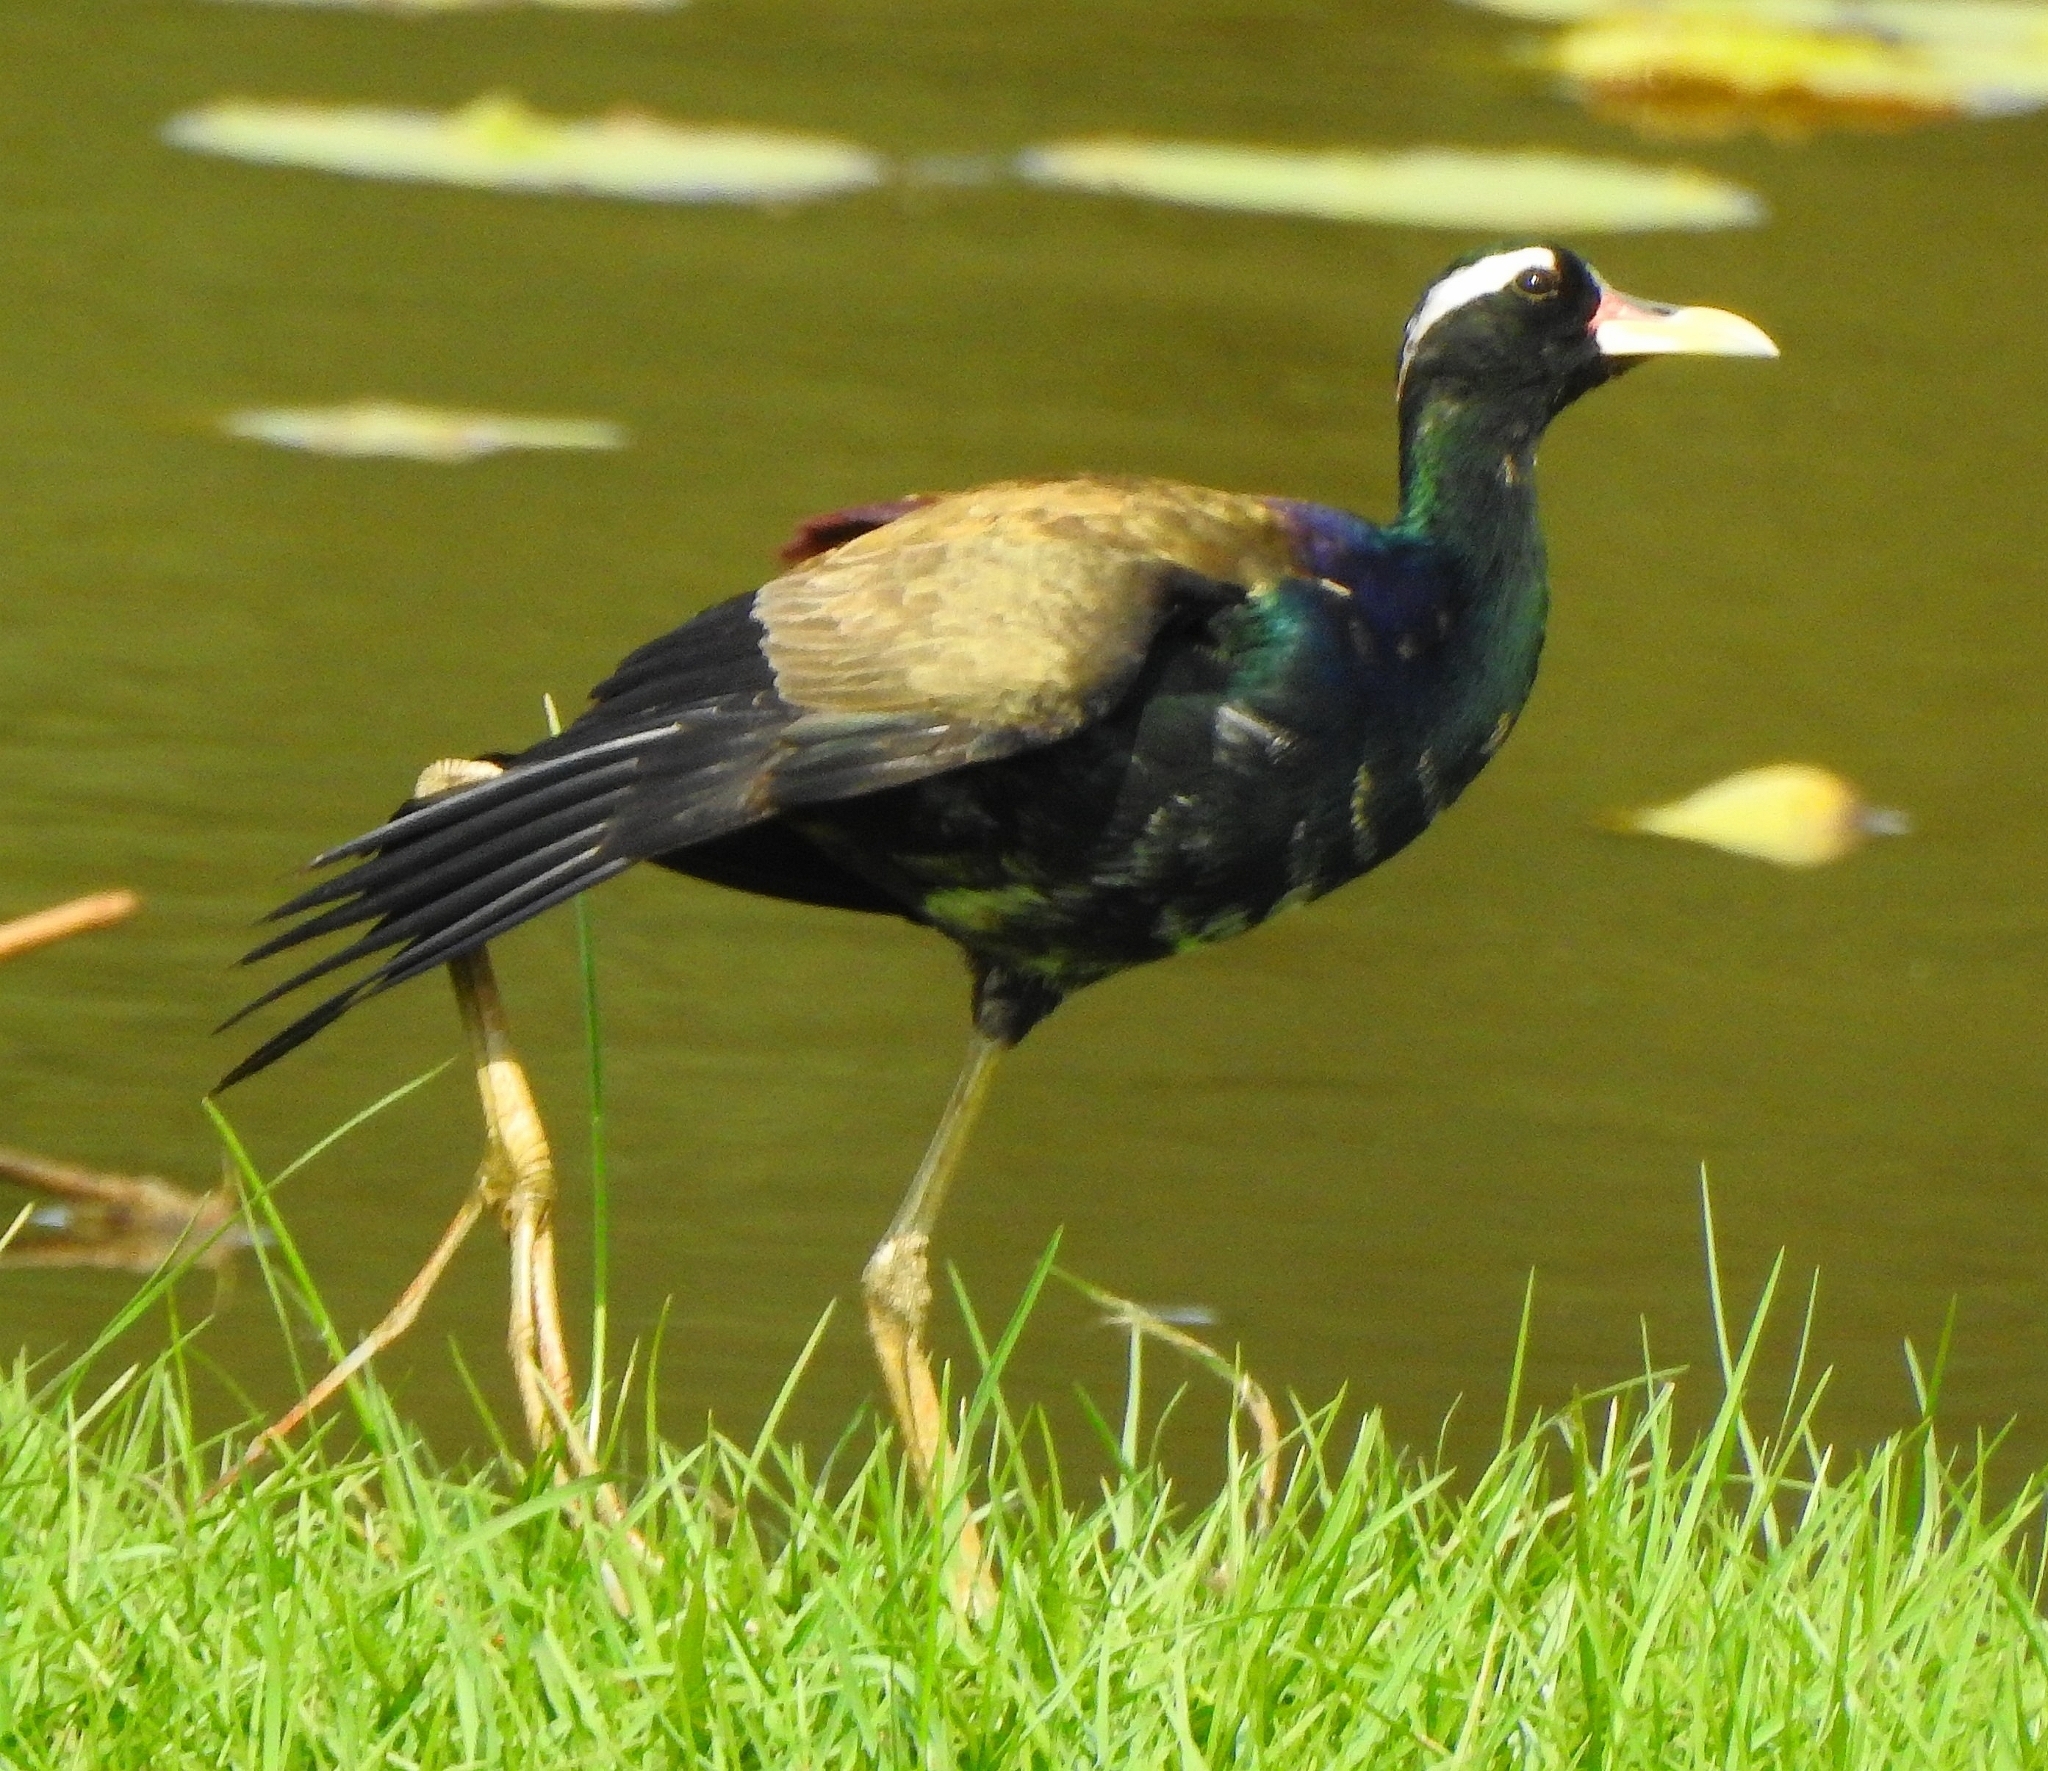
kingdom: Animalia
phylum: Chordata
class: Aves
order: Charadriiformes
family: Jacanidae
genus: Metopidius
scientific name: Metopidius indicus
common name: Bronze-winged jacana
